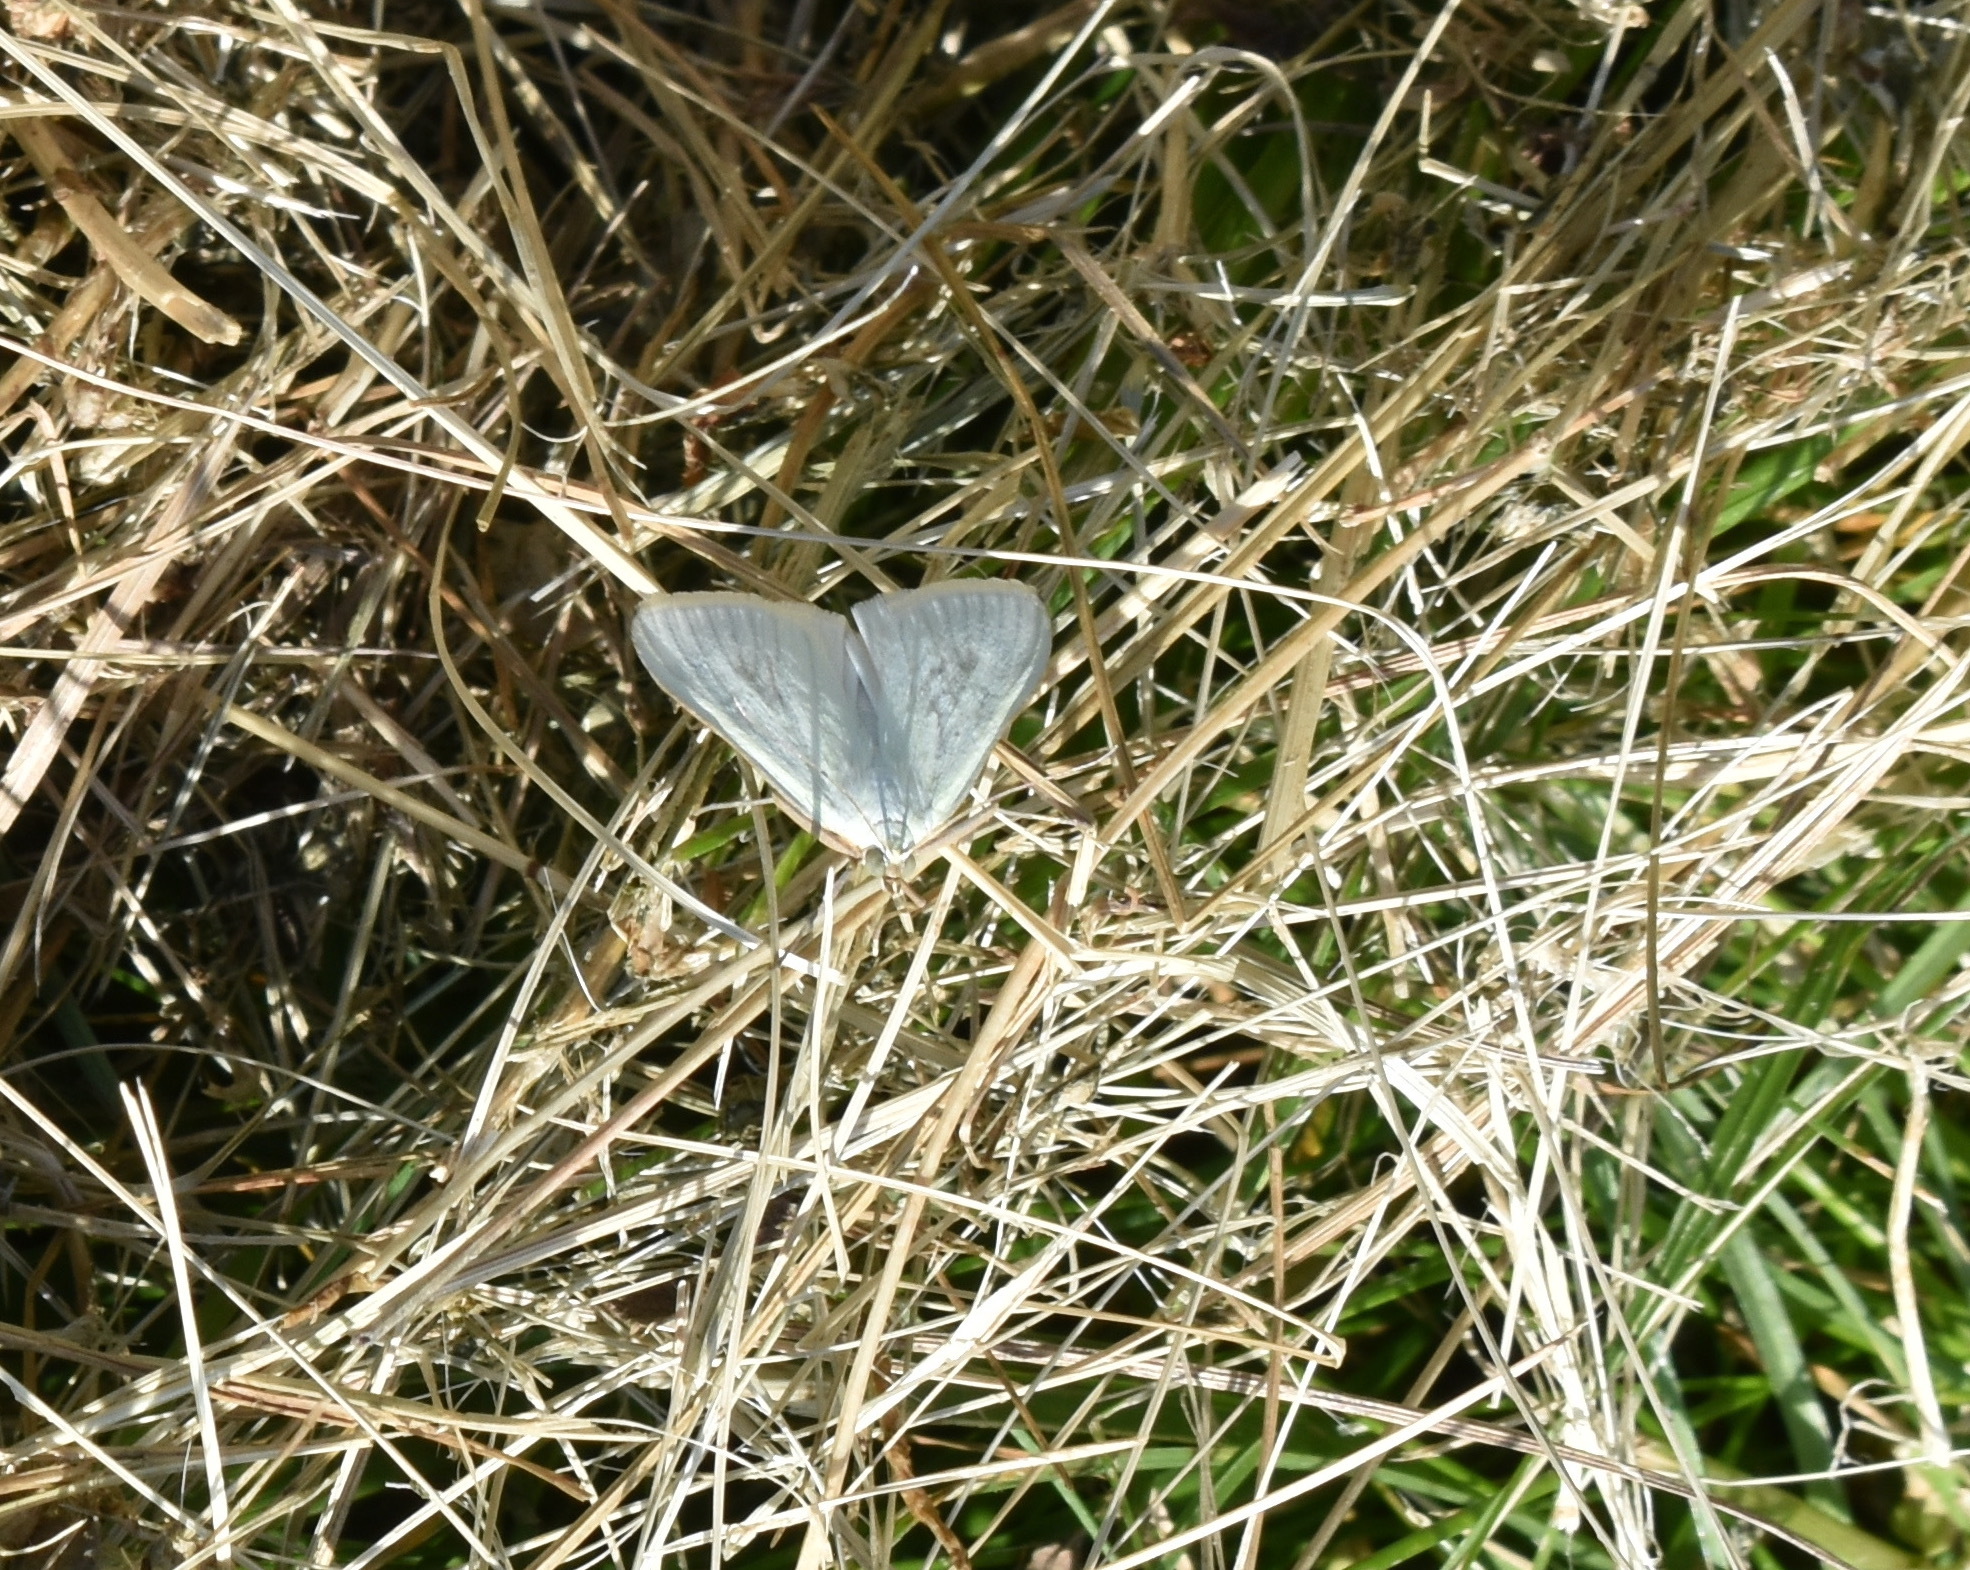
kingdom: Animalia
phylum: Arthropoda
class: Insecta
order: Lepidoptera
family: Crambidae
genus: Sitochroa
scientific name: Sitochroa palealis
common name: Greenish-yellow sitochroa moth
